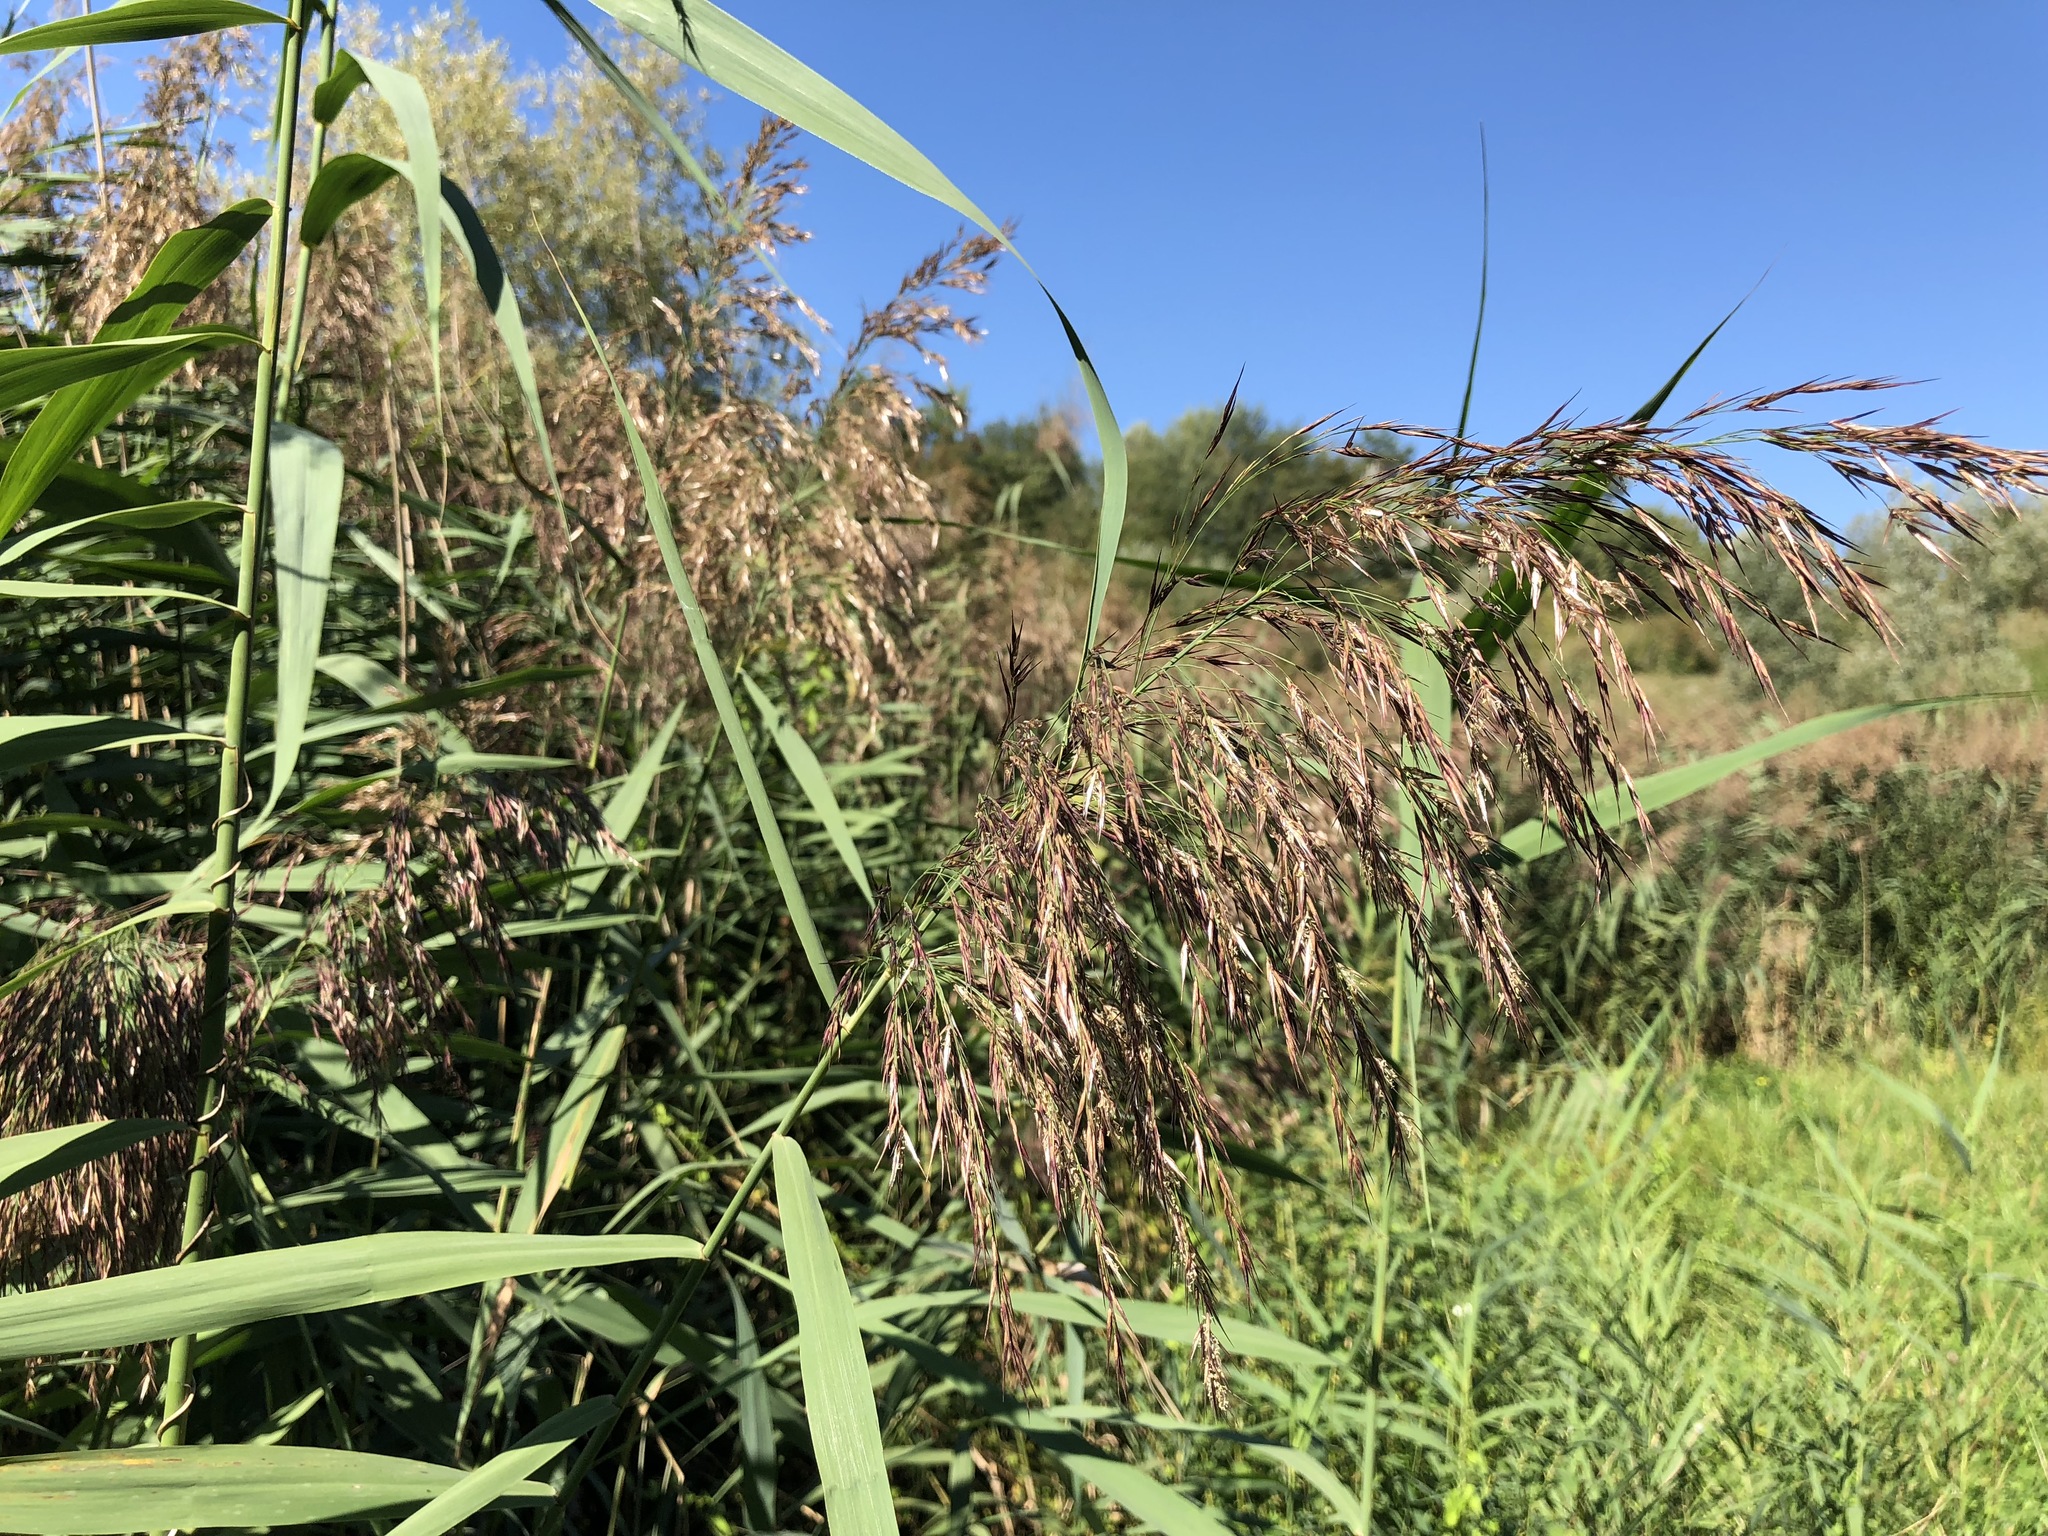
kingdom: Plantae
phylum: Tracheophyta
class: Liliopsida
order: Poales
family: Poaceae
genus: Phragmites
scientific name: Phragmites australis
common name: Common reed
